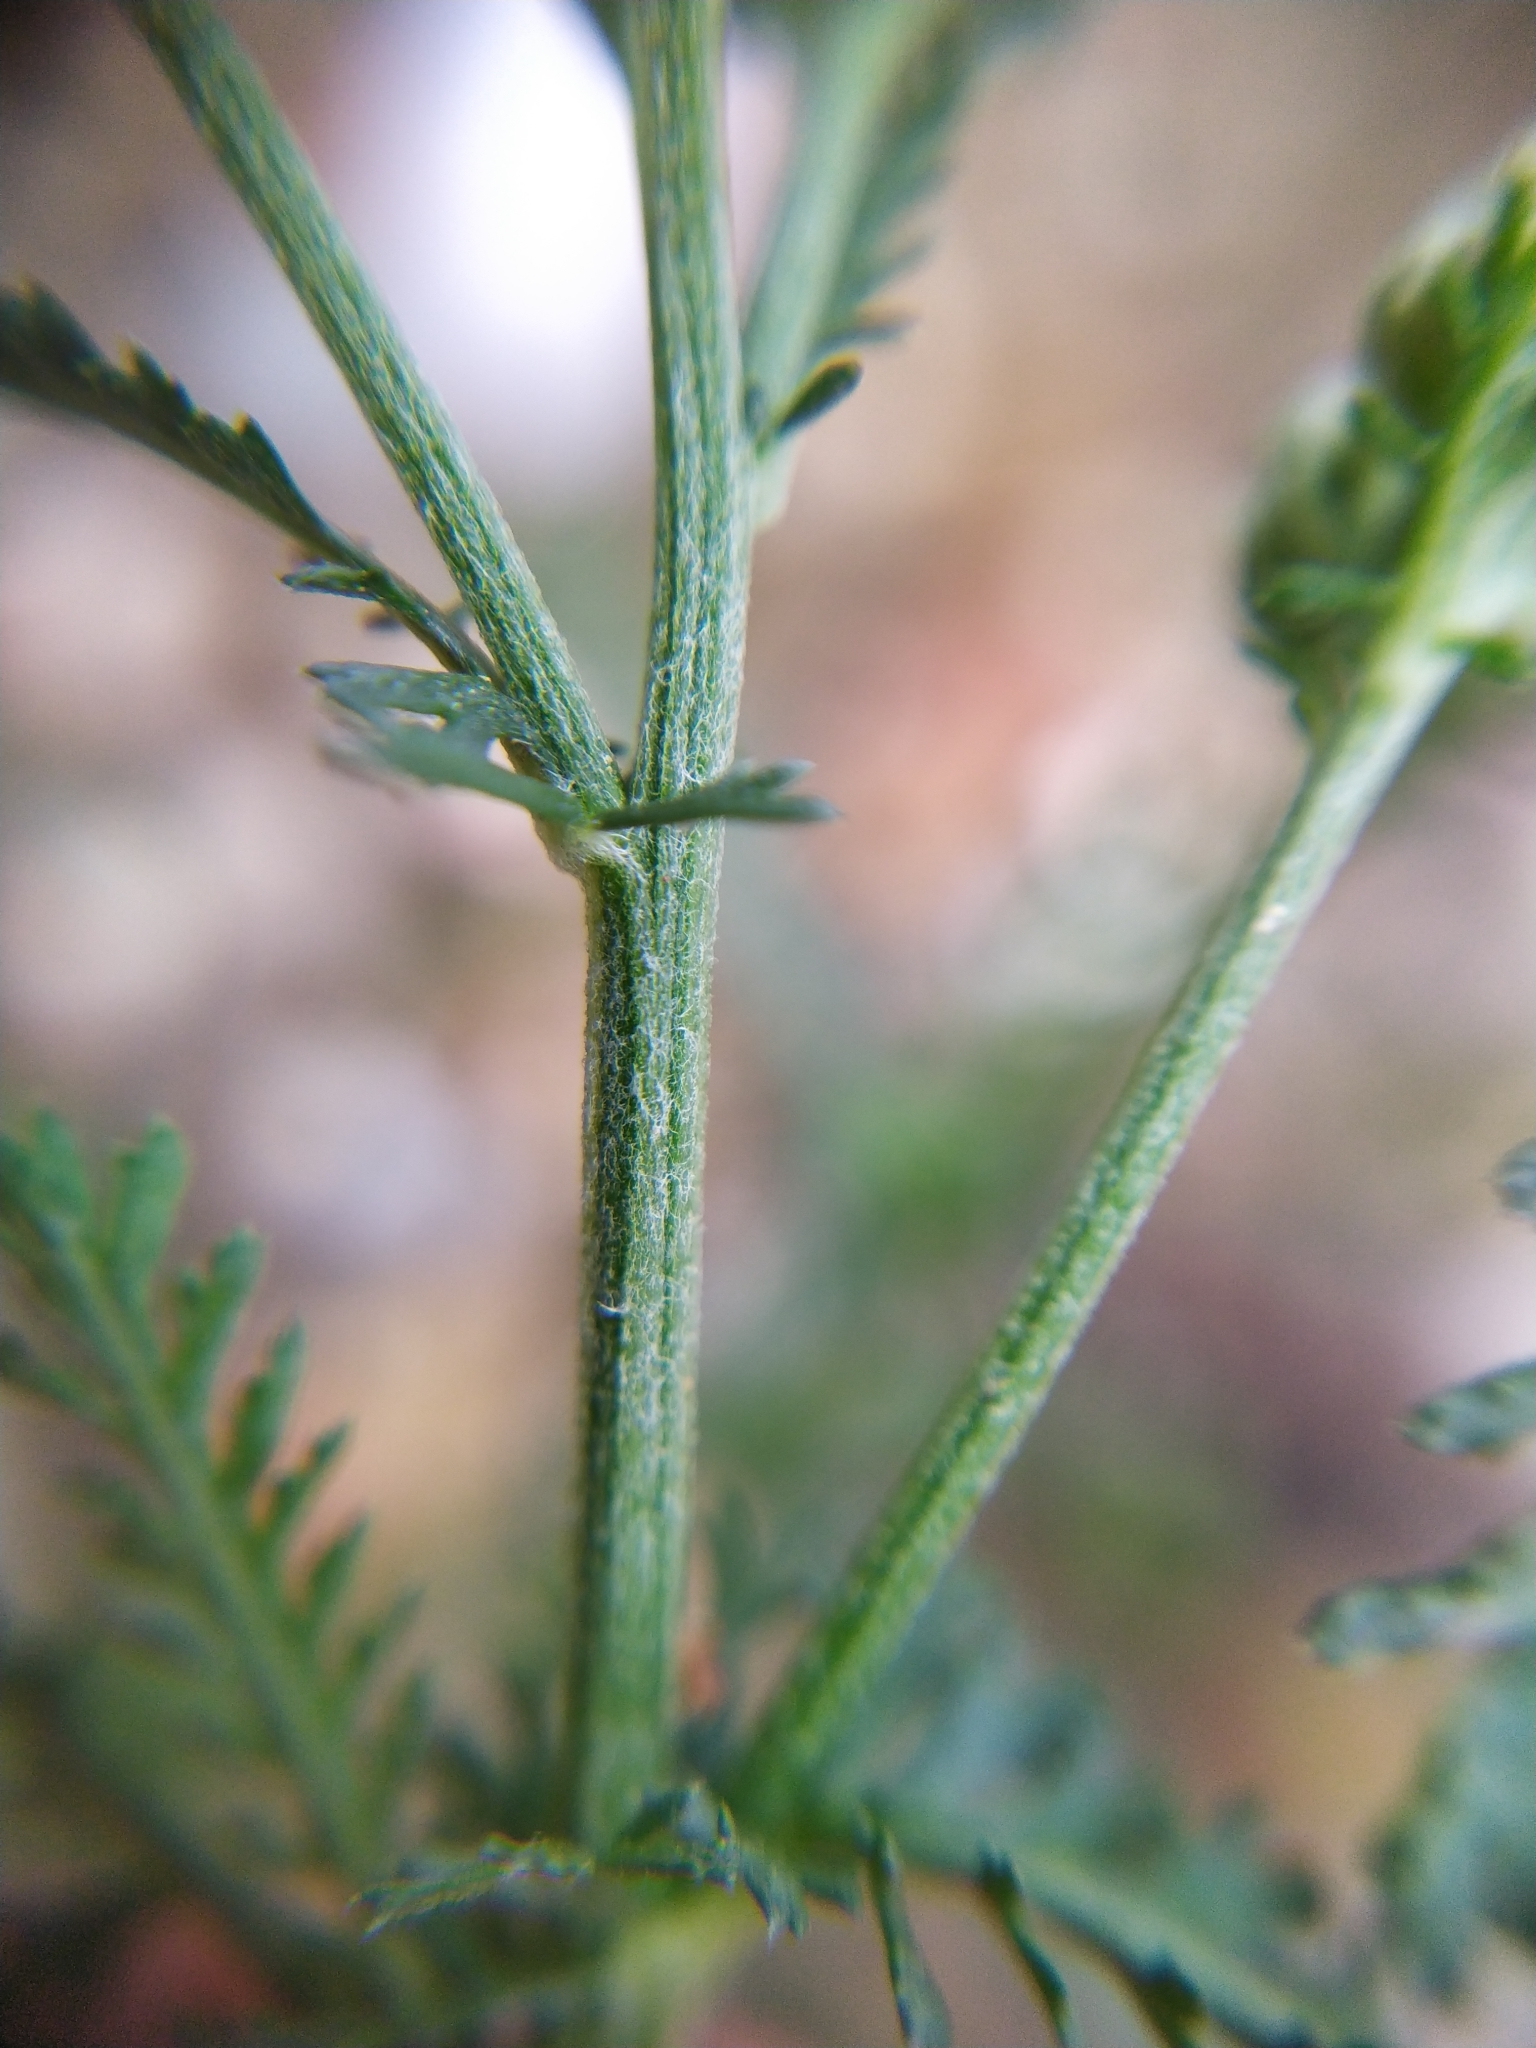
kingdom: Plantae
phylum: Tracheophyta
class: Magnoliopsida
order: Asterales
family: Asteraceae
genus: Achillea
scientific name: Achillea millefolium
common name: Yarrow
